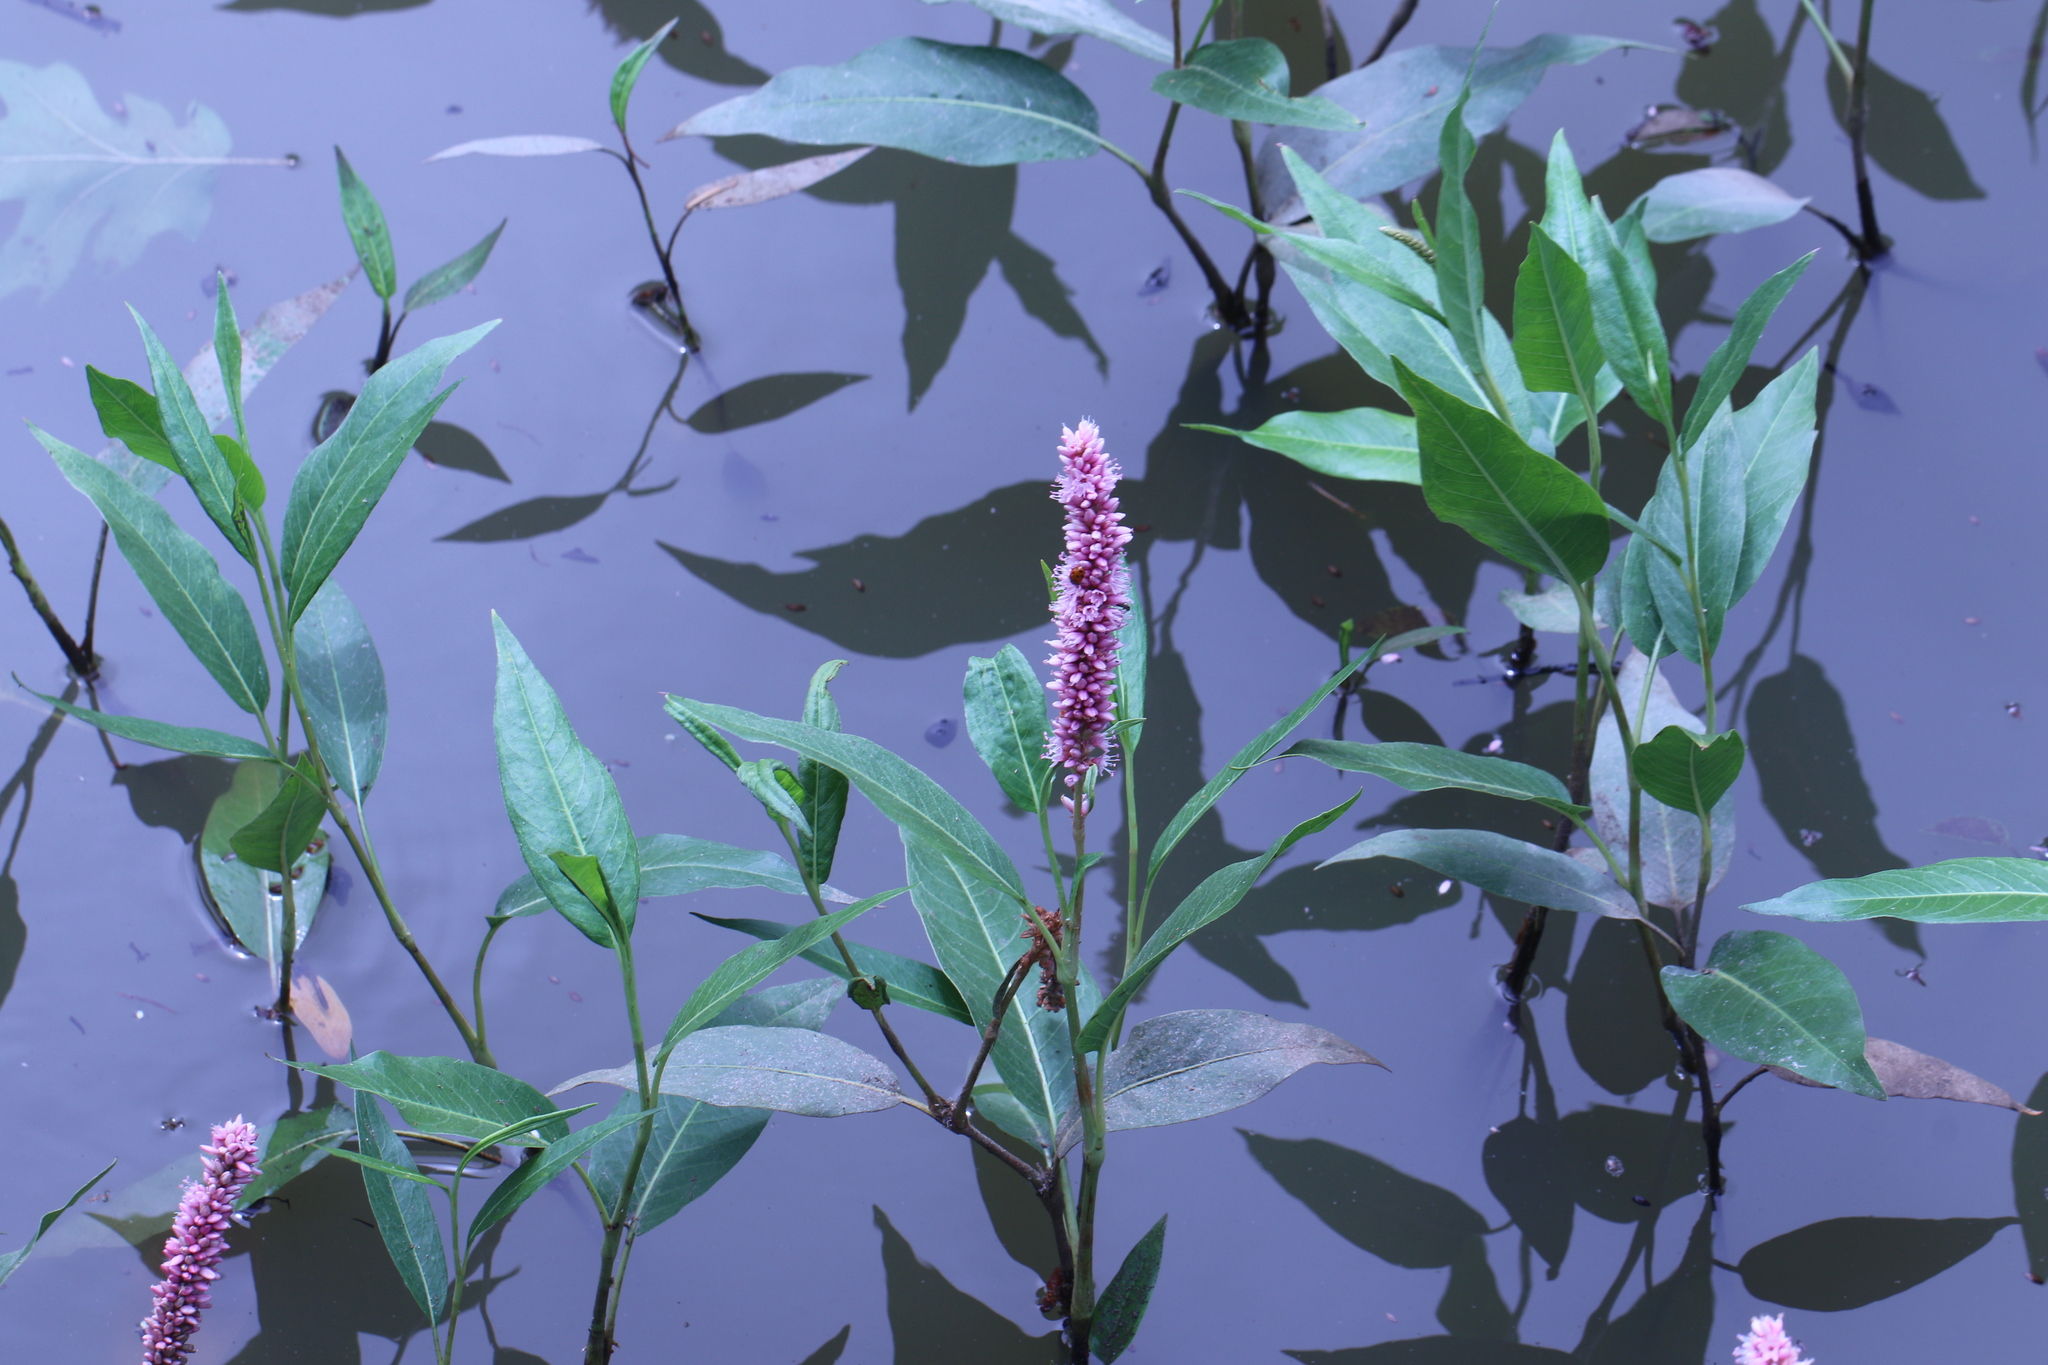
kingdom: Plantae
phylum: Tracheophyta
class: Magnoliopsida
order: Caryophyllales
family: Polygonaceae
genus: Persicaria
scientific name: Persicaria amphibia
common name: Amphibious bistort
